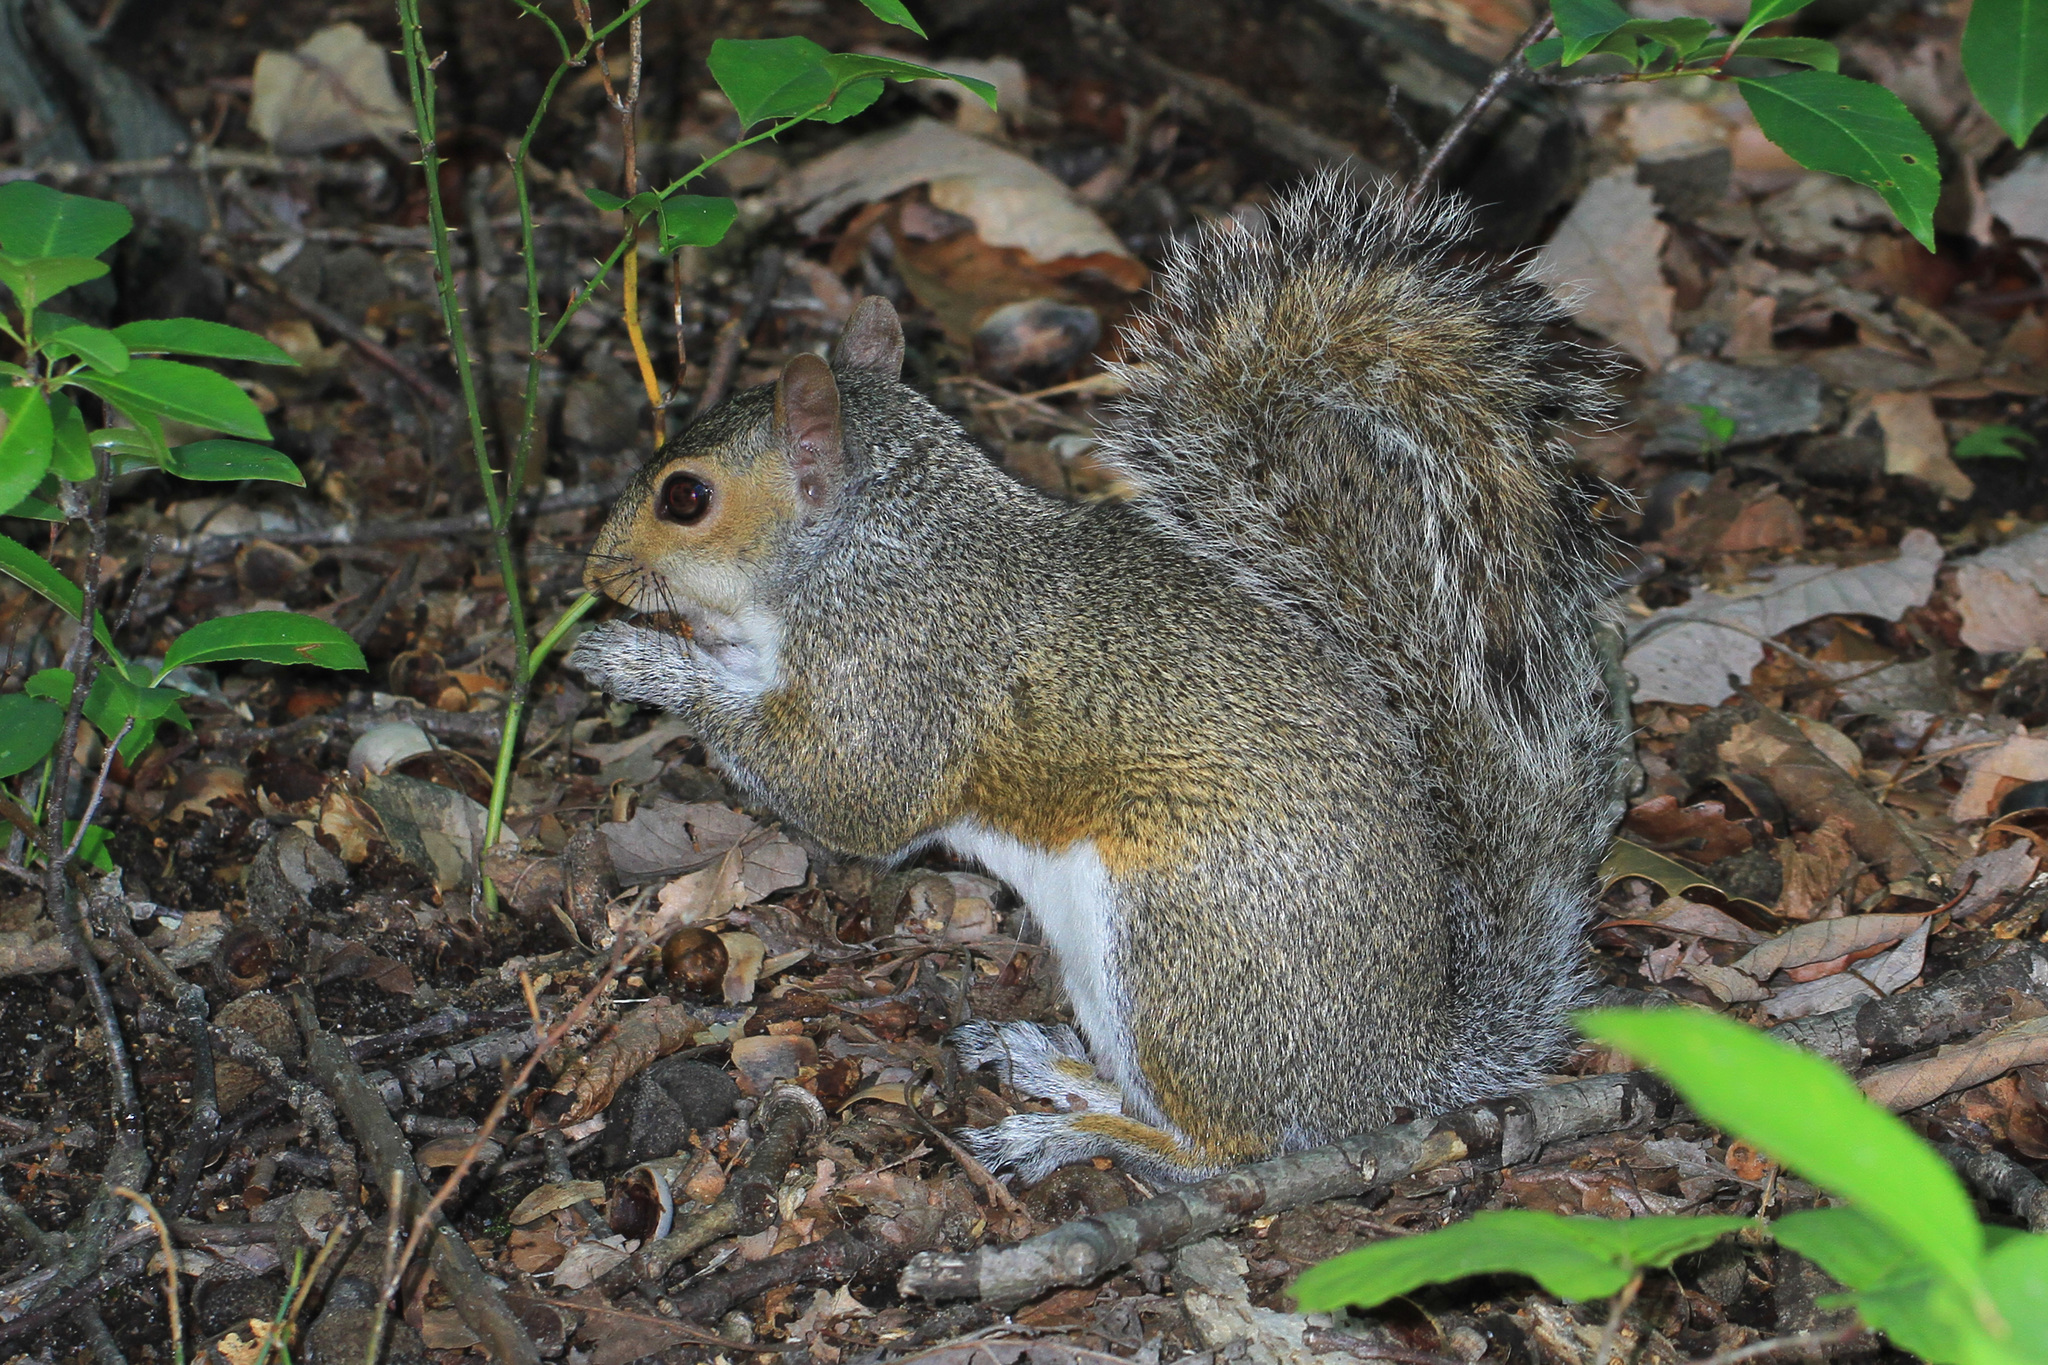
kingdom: Animalia
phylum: Chordata
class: Mammalia
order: Rodentia
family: Sciuridae
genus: Sciurus
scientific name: Sciurus carolinensis
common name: Eastern gray squirrel
